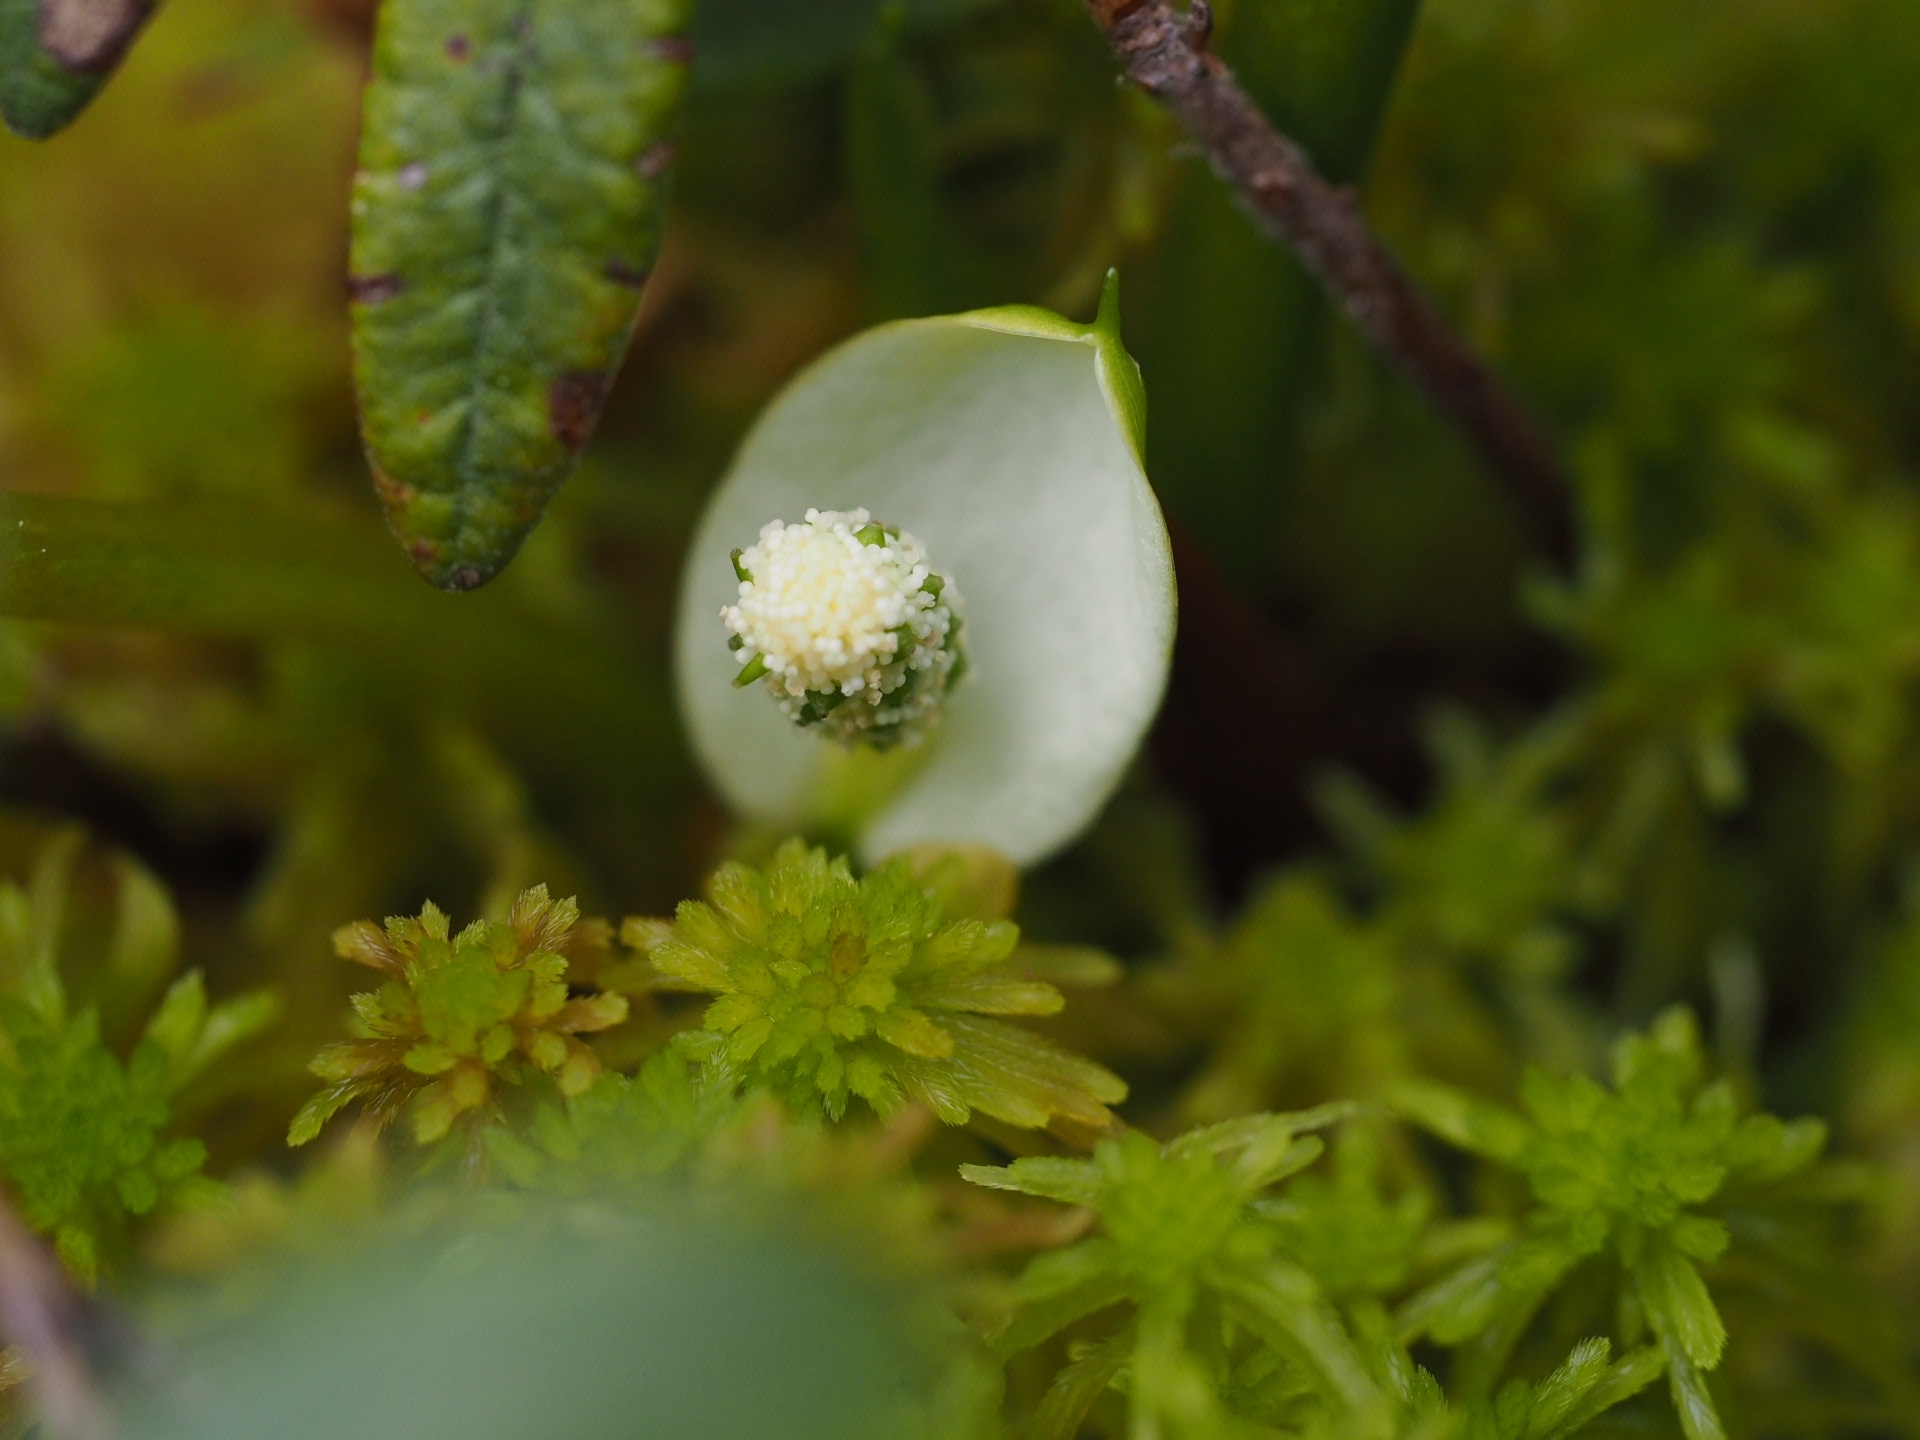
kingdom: Plantae
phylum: Tracheophyta
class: Liliopsida
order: Alismatales
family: Araceae
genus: Calla
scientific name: Calla palustris
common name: Bog arum
